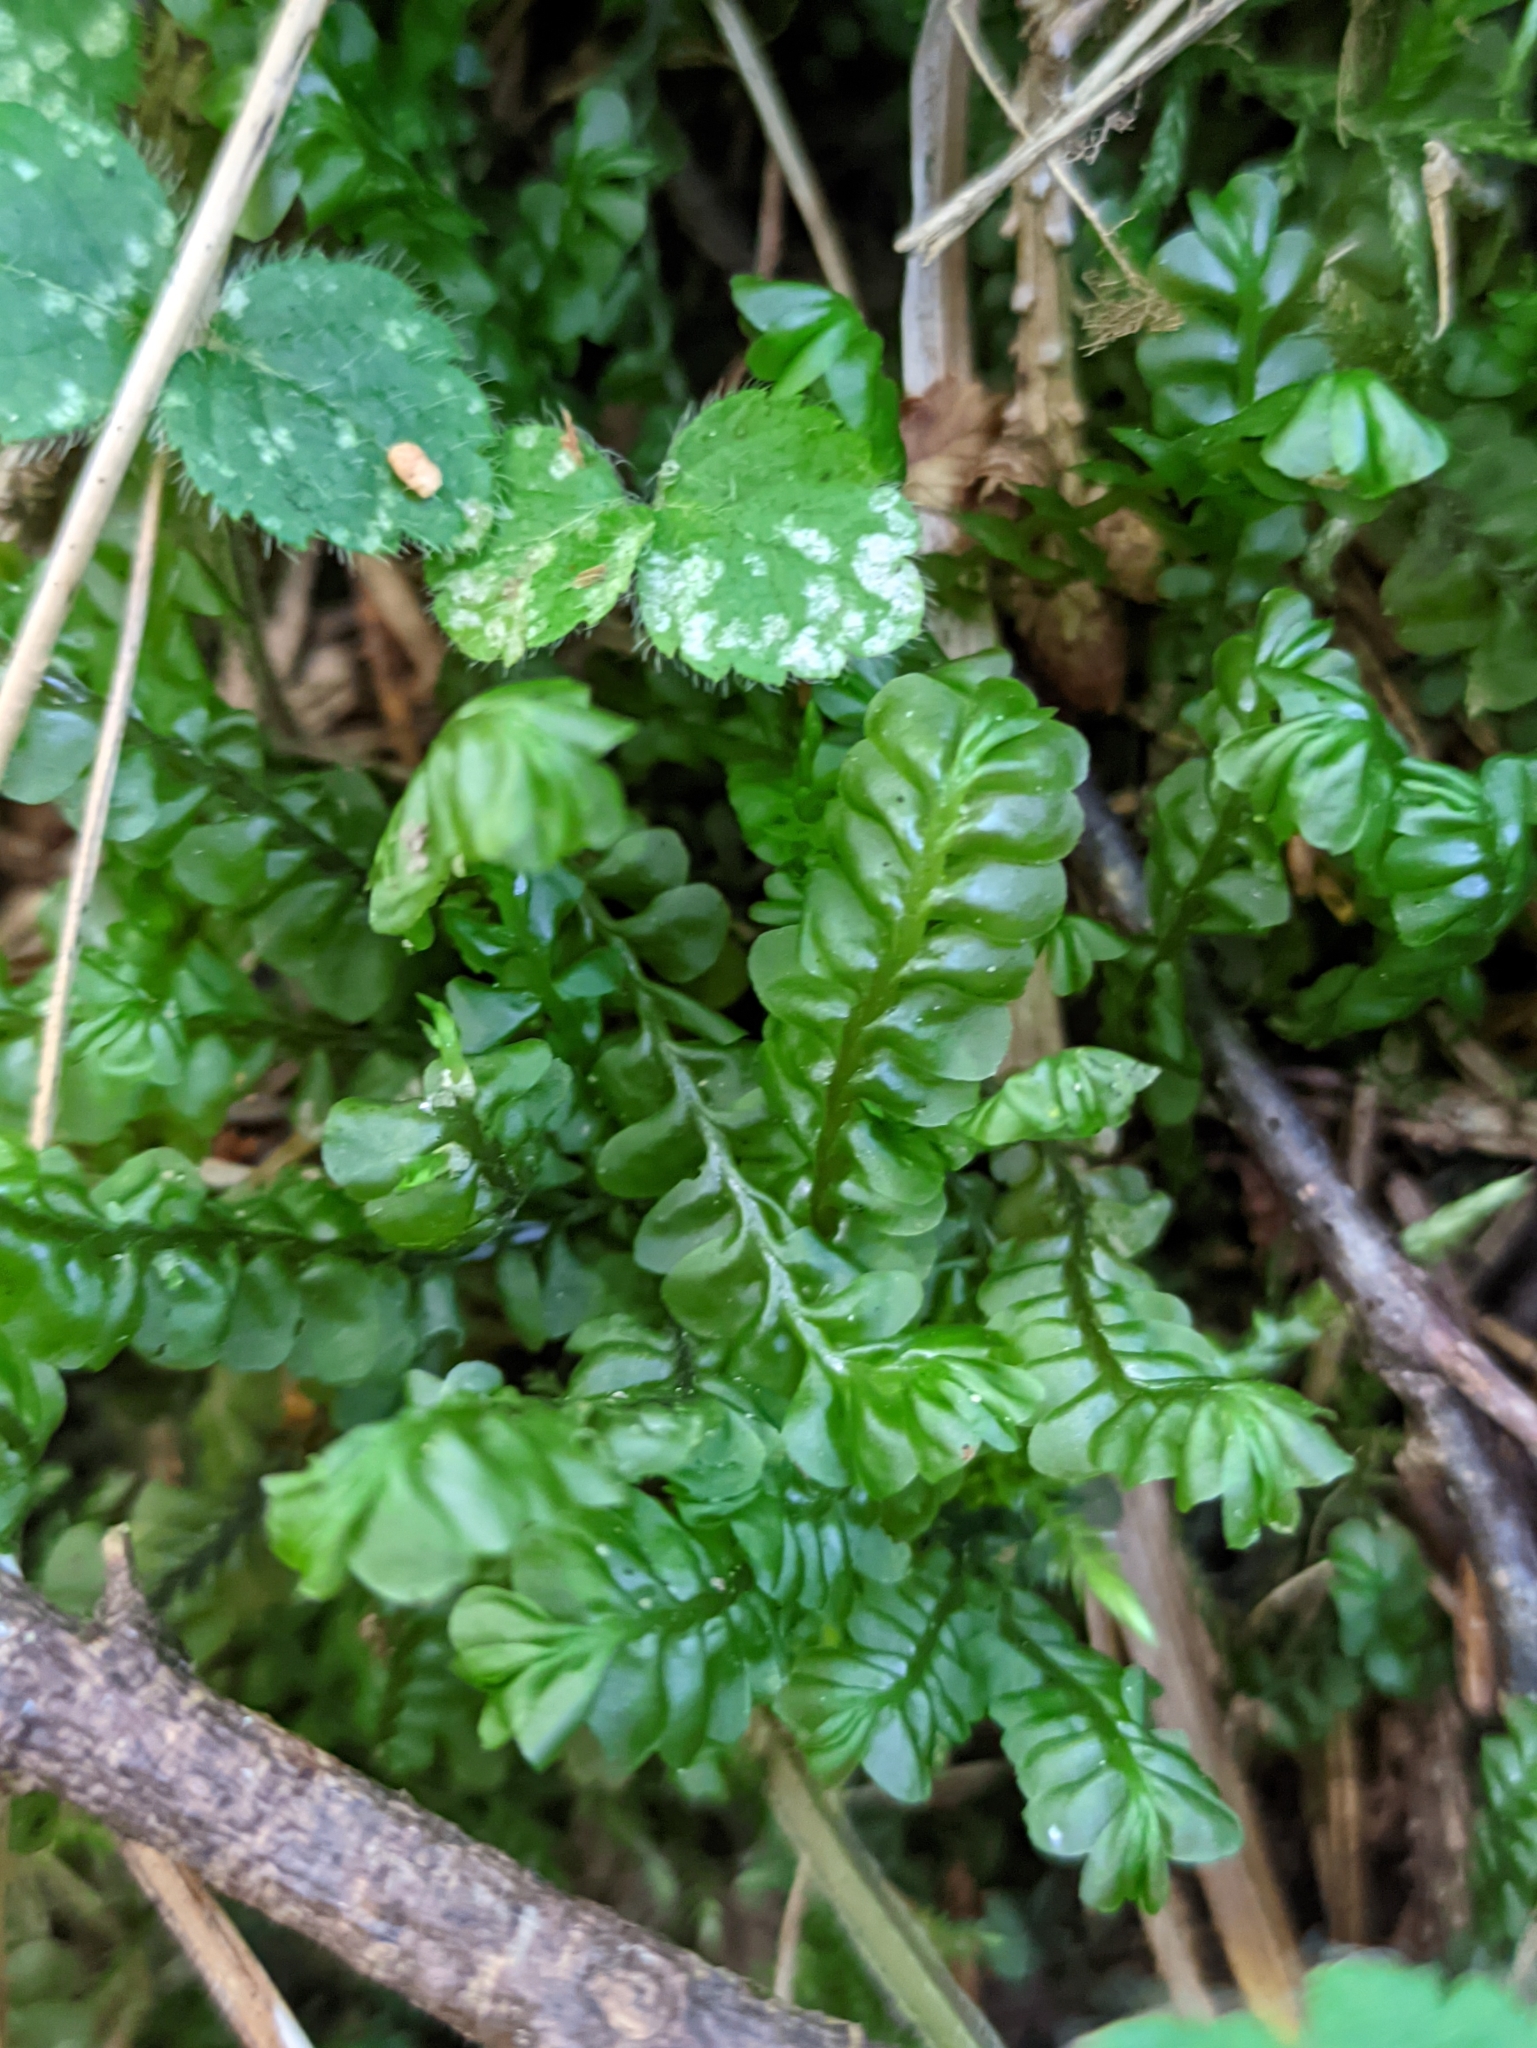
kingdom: Plantae
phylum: Marchantiophyta
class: Jungermanniopsida
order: Jungermanniales
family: Plagiochilaceae
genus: Plagiochila
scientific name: Plagiochila asplenioides
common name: Greater featherwort
